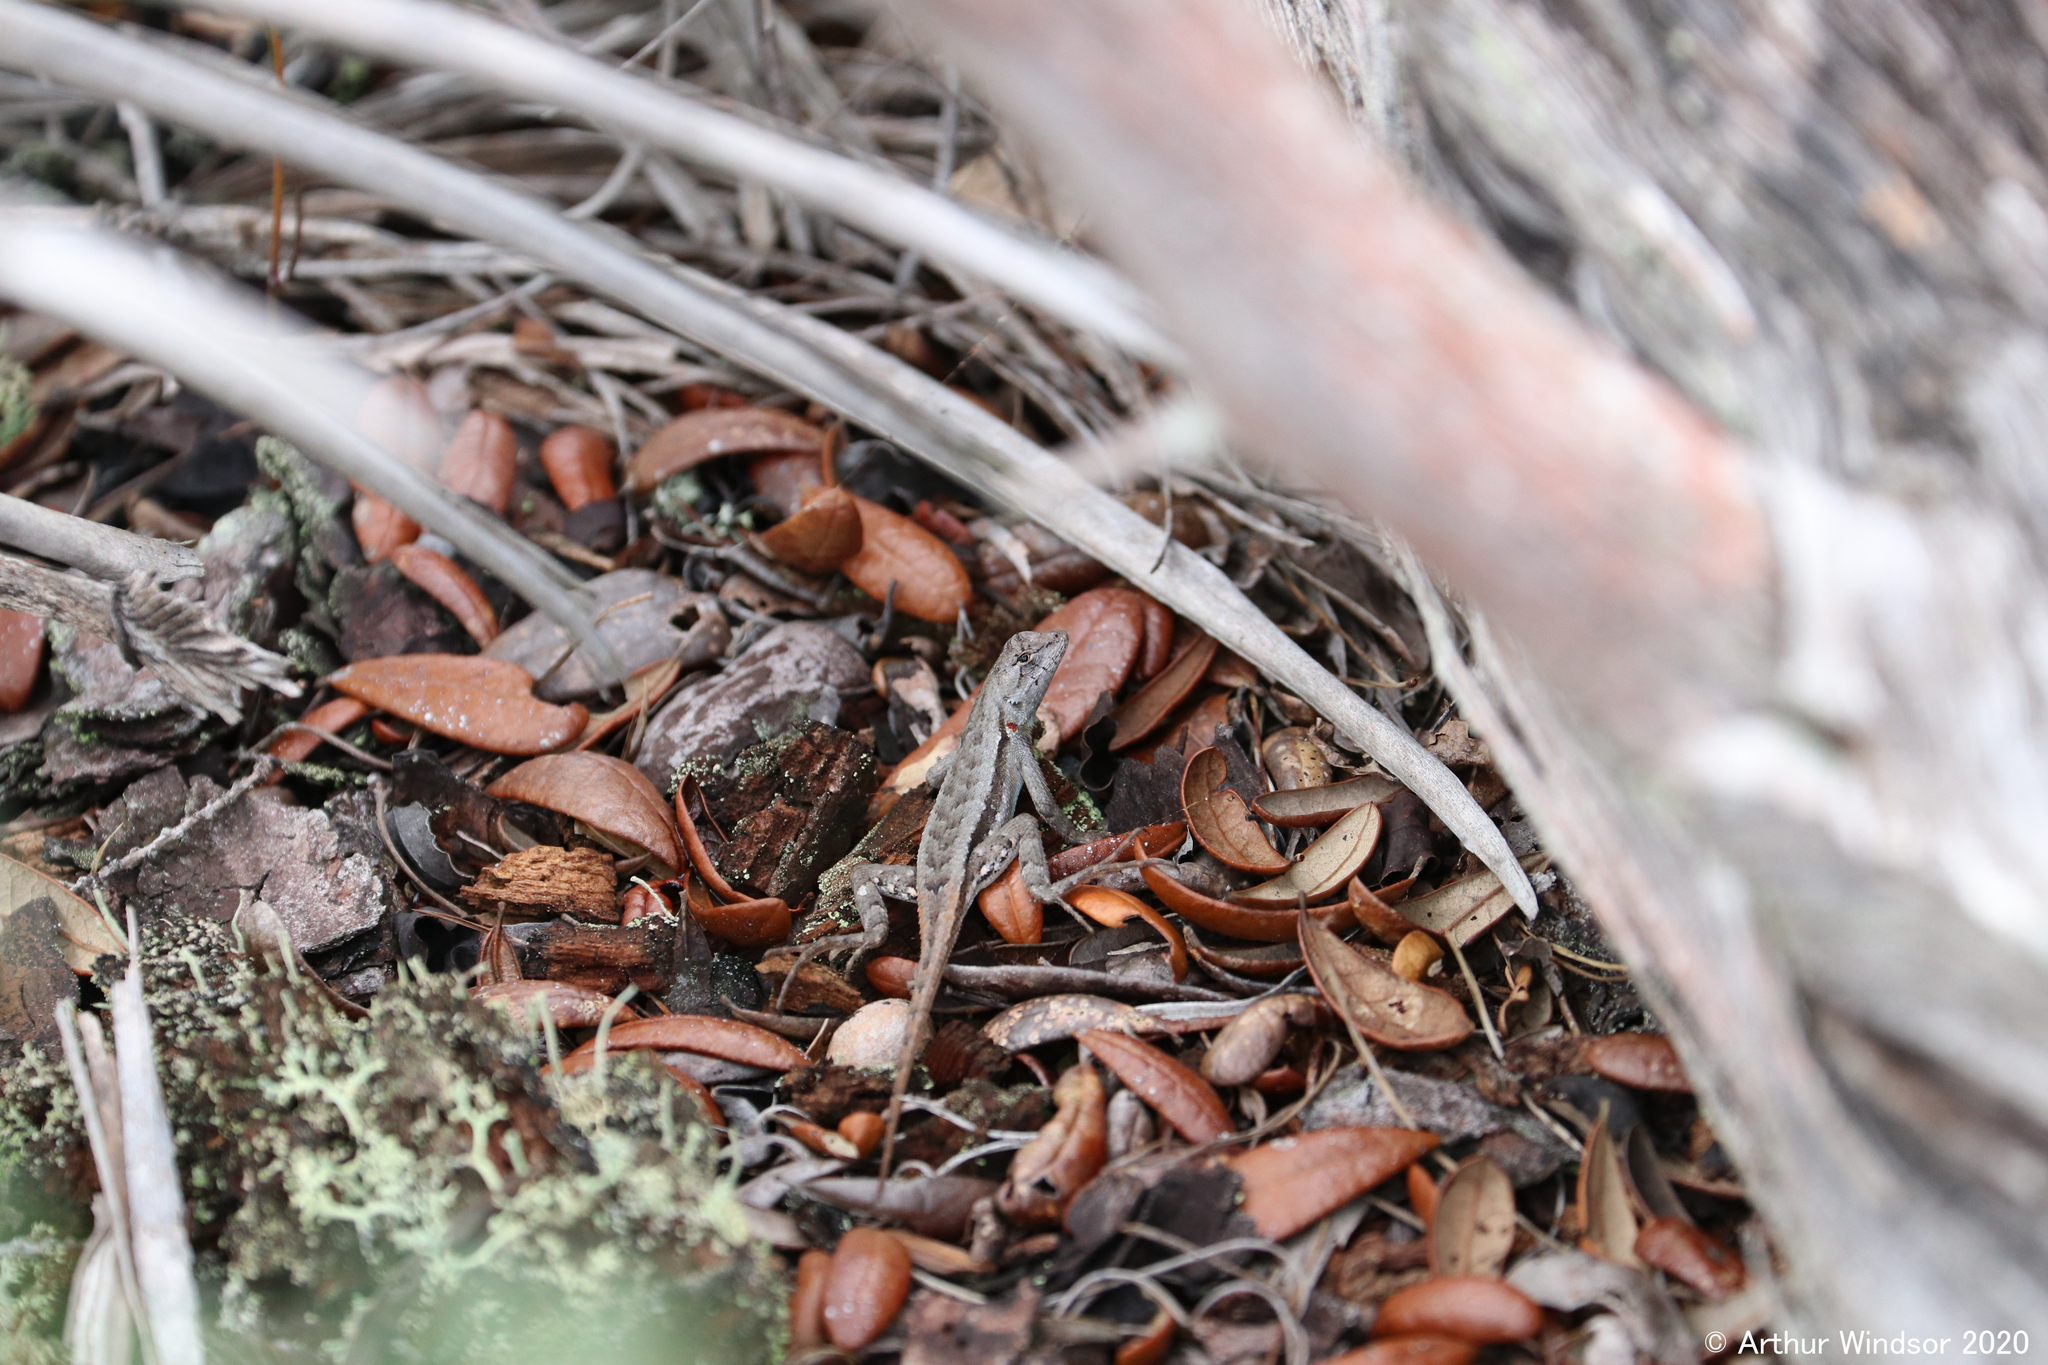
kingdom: Animalia
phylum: Chordata
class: Squamata
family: Phrynosomatidae
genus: Sceloporus
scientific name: Sceloporus woodi
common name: Florida scrub lizard
